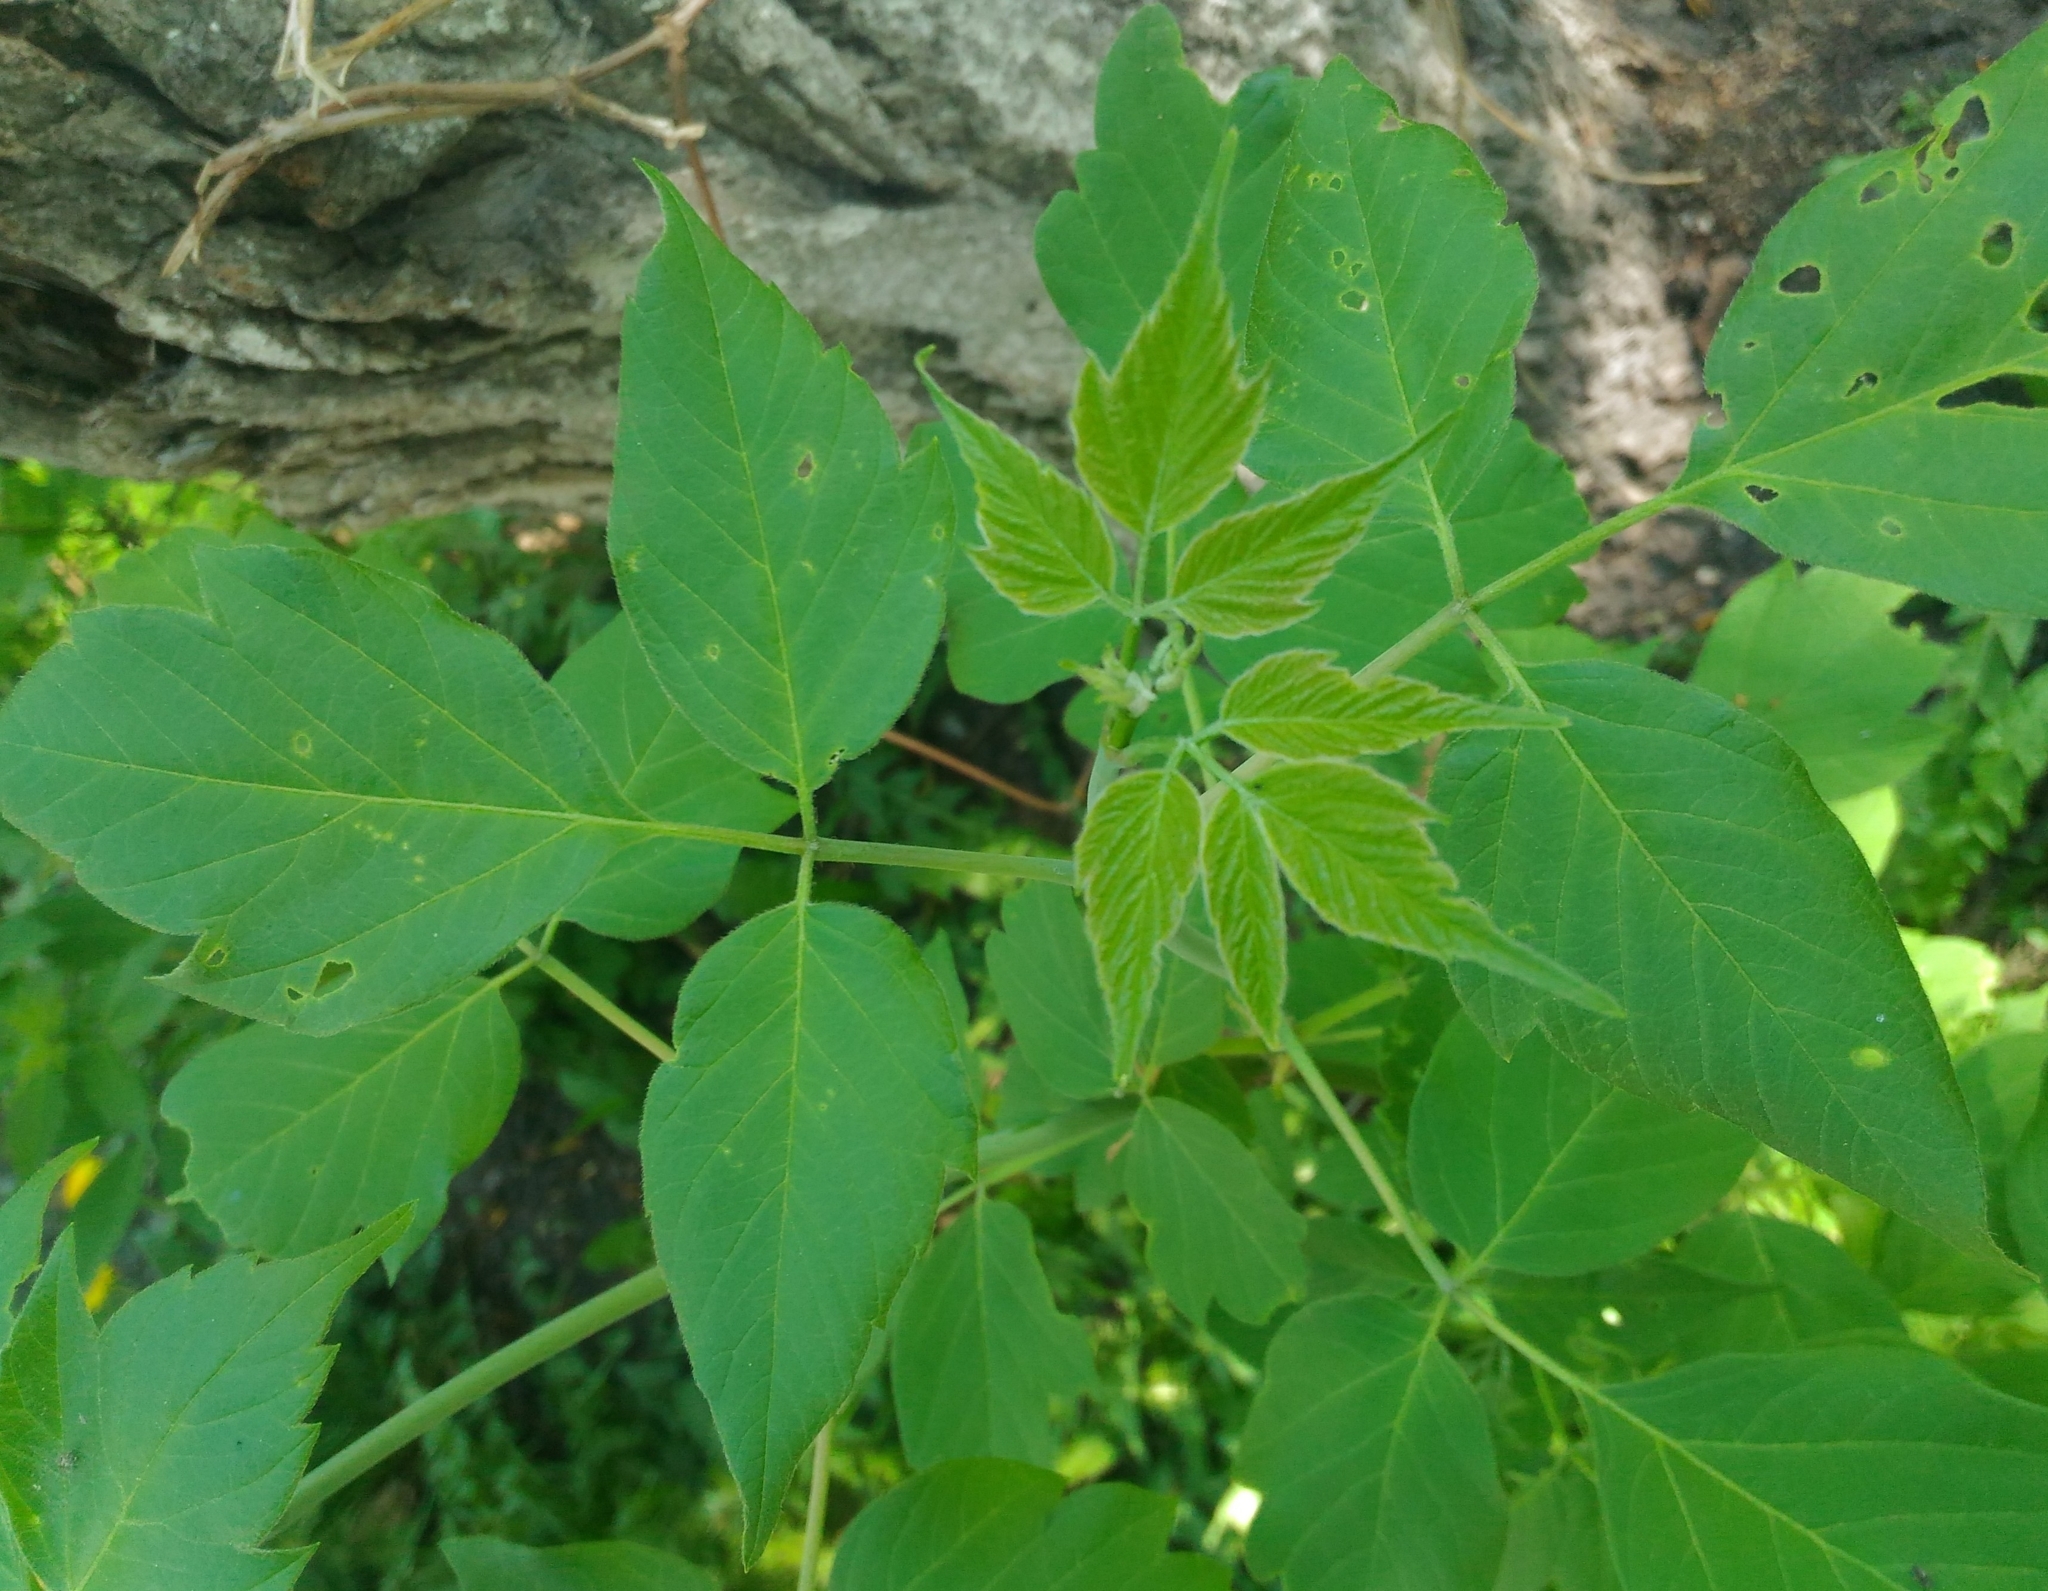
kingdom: Plantae
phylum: Tracheophyta
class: Magnoliopsida
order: Sapindales
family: Sapindaceae
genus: Acer
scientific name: Acer negundo
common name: Ashleaf maple
